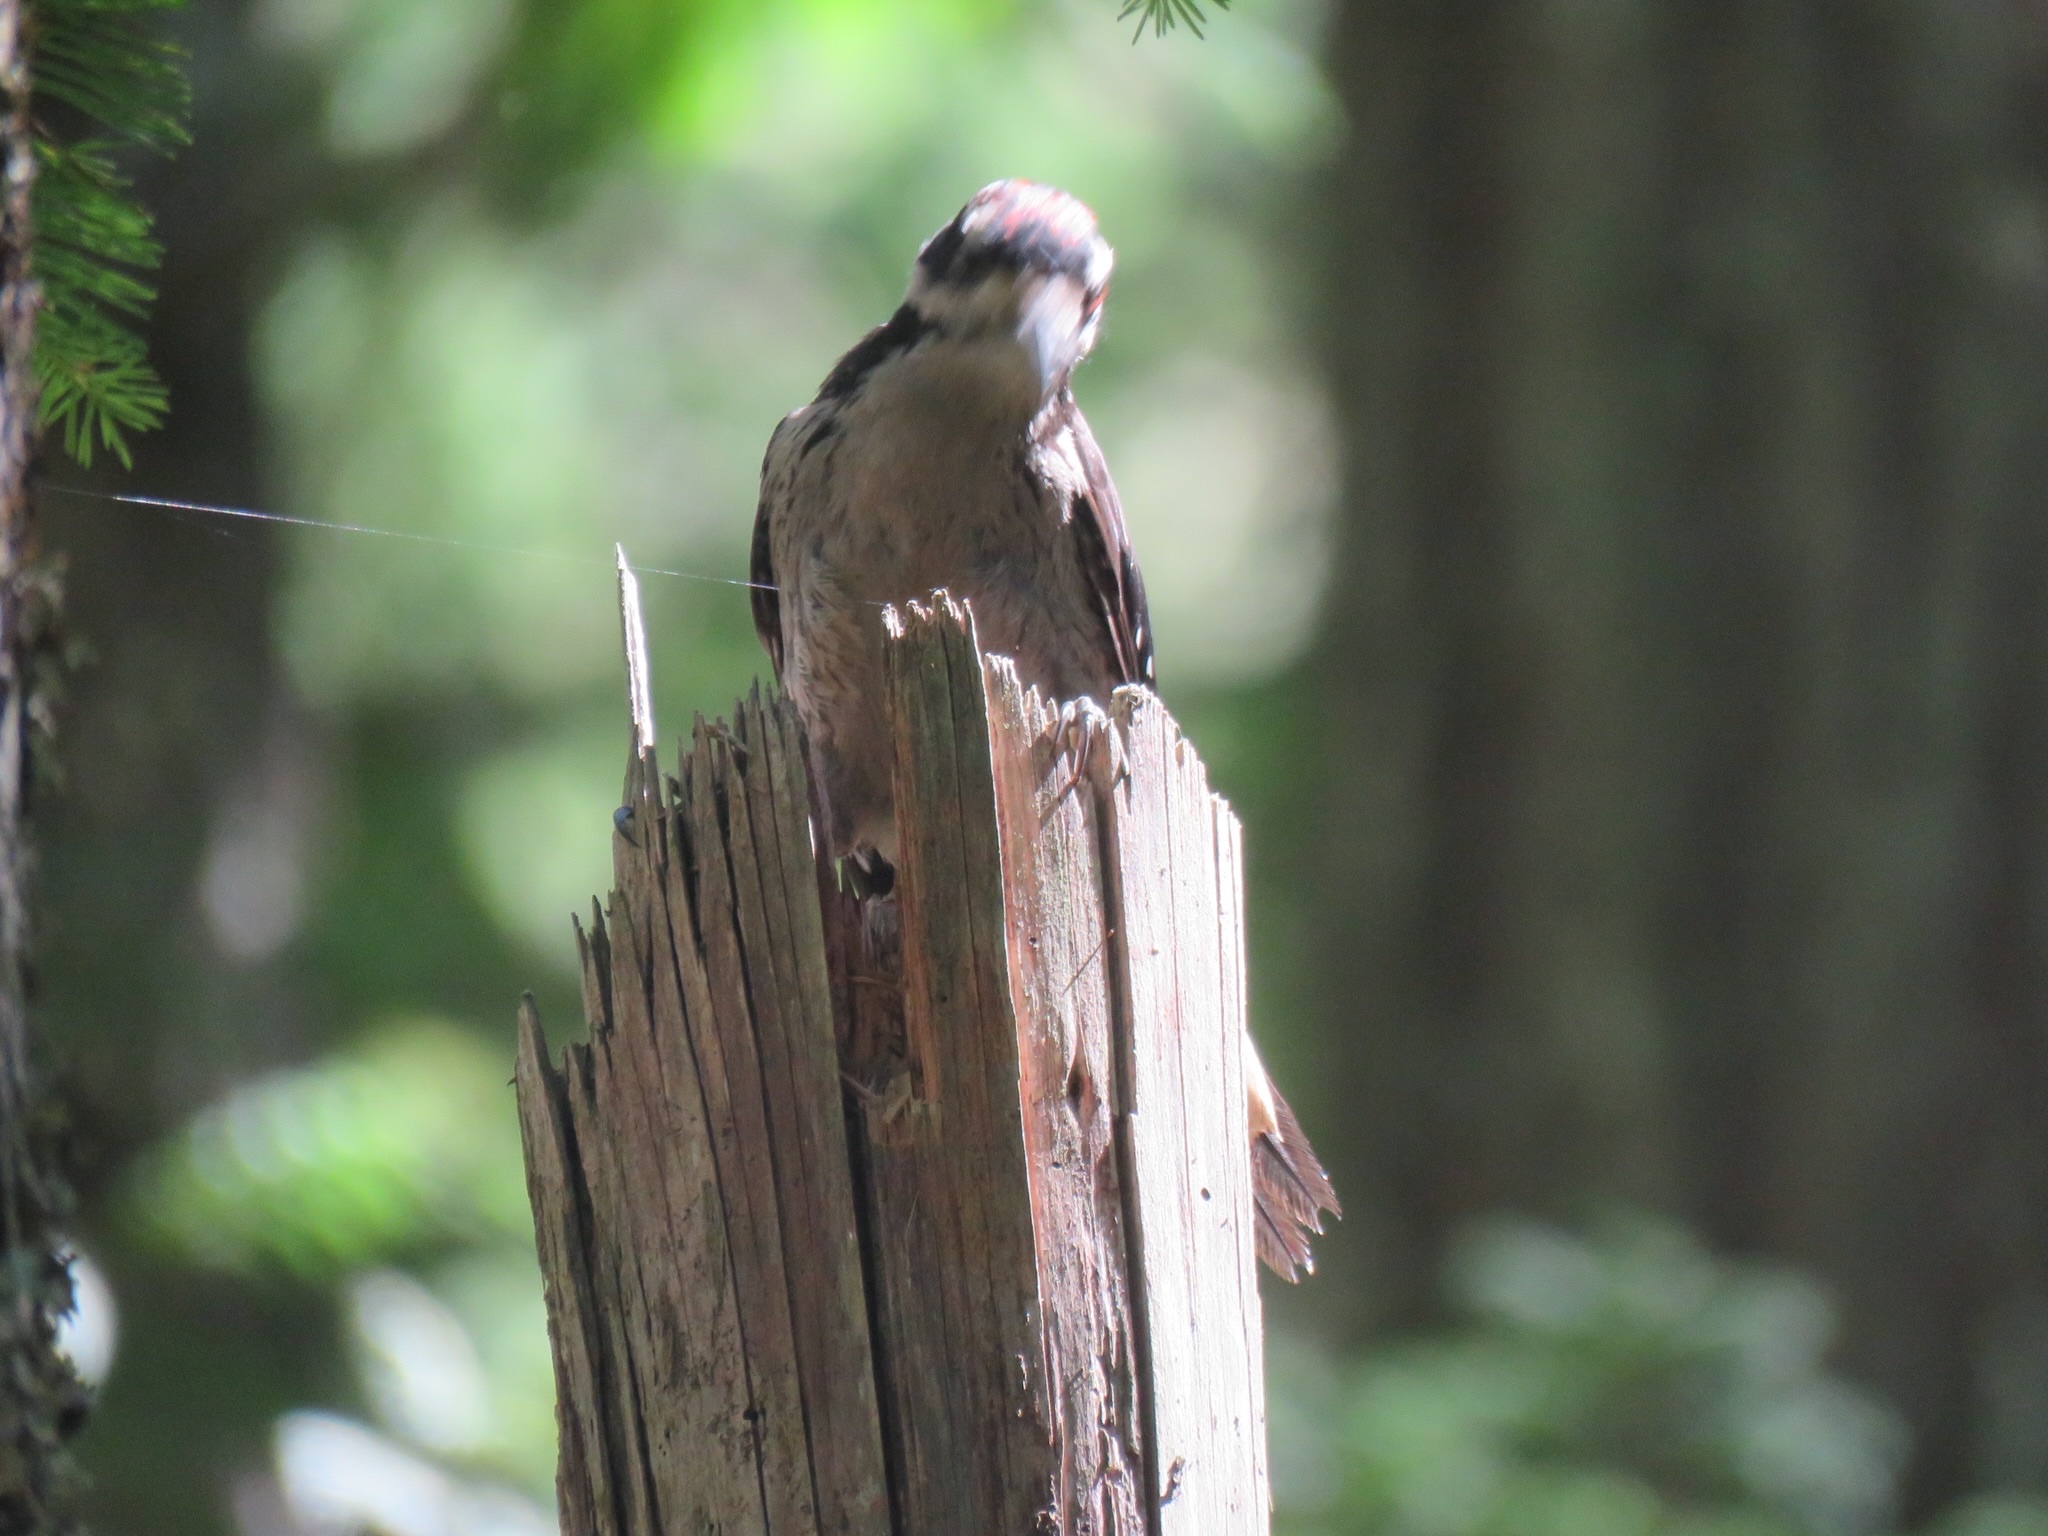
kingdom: Animalia
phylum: Chordata
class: Aves
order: Piciformes
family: Picidae
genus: Leuconotopicus
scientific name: Leuconotopicus villosus
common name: Hairy woodpecker
